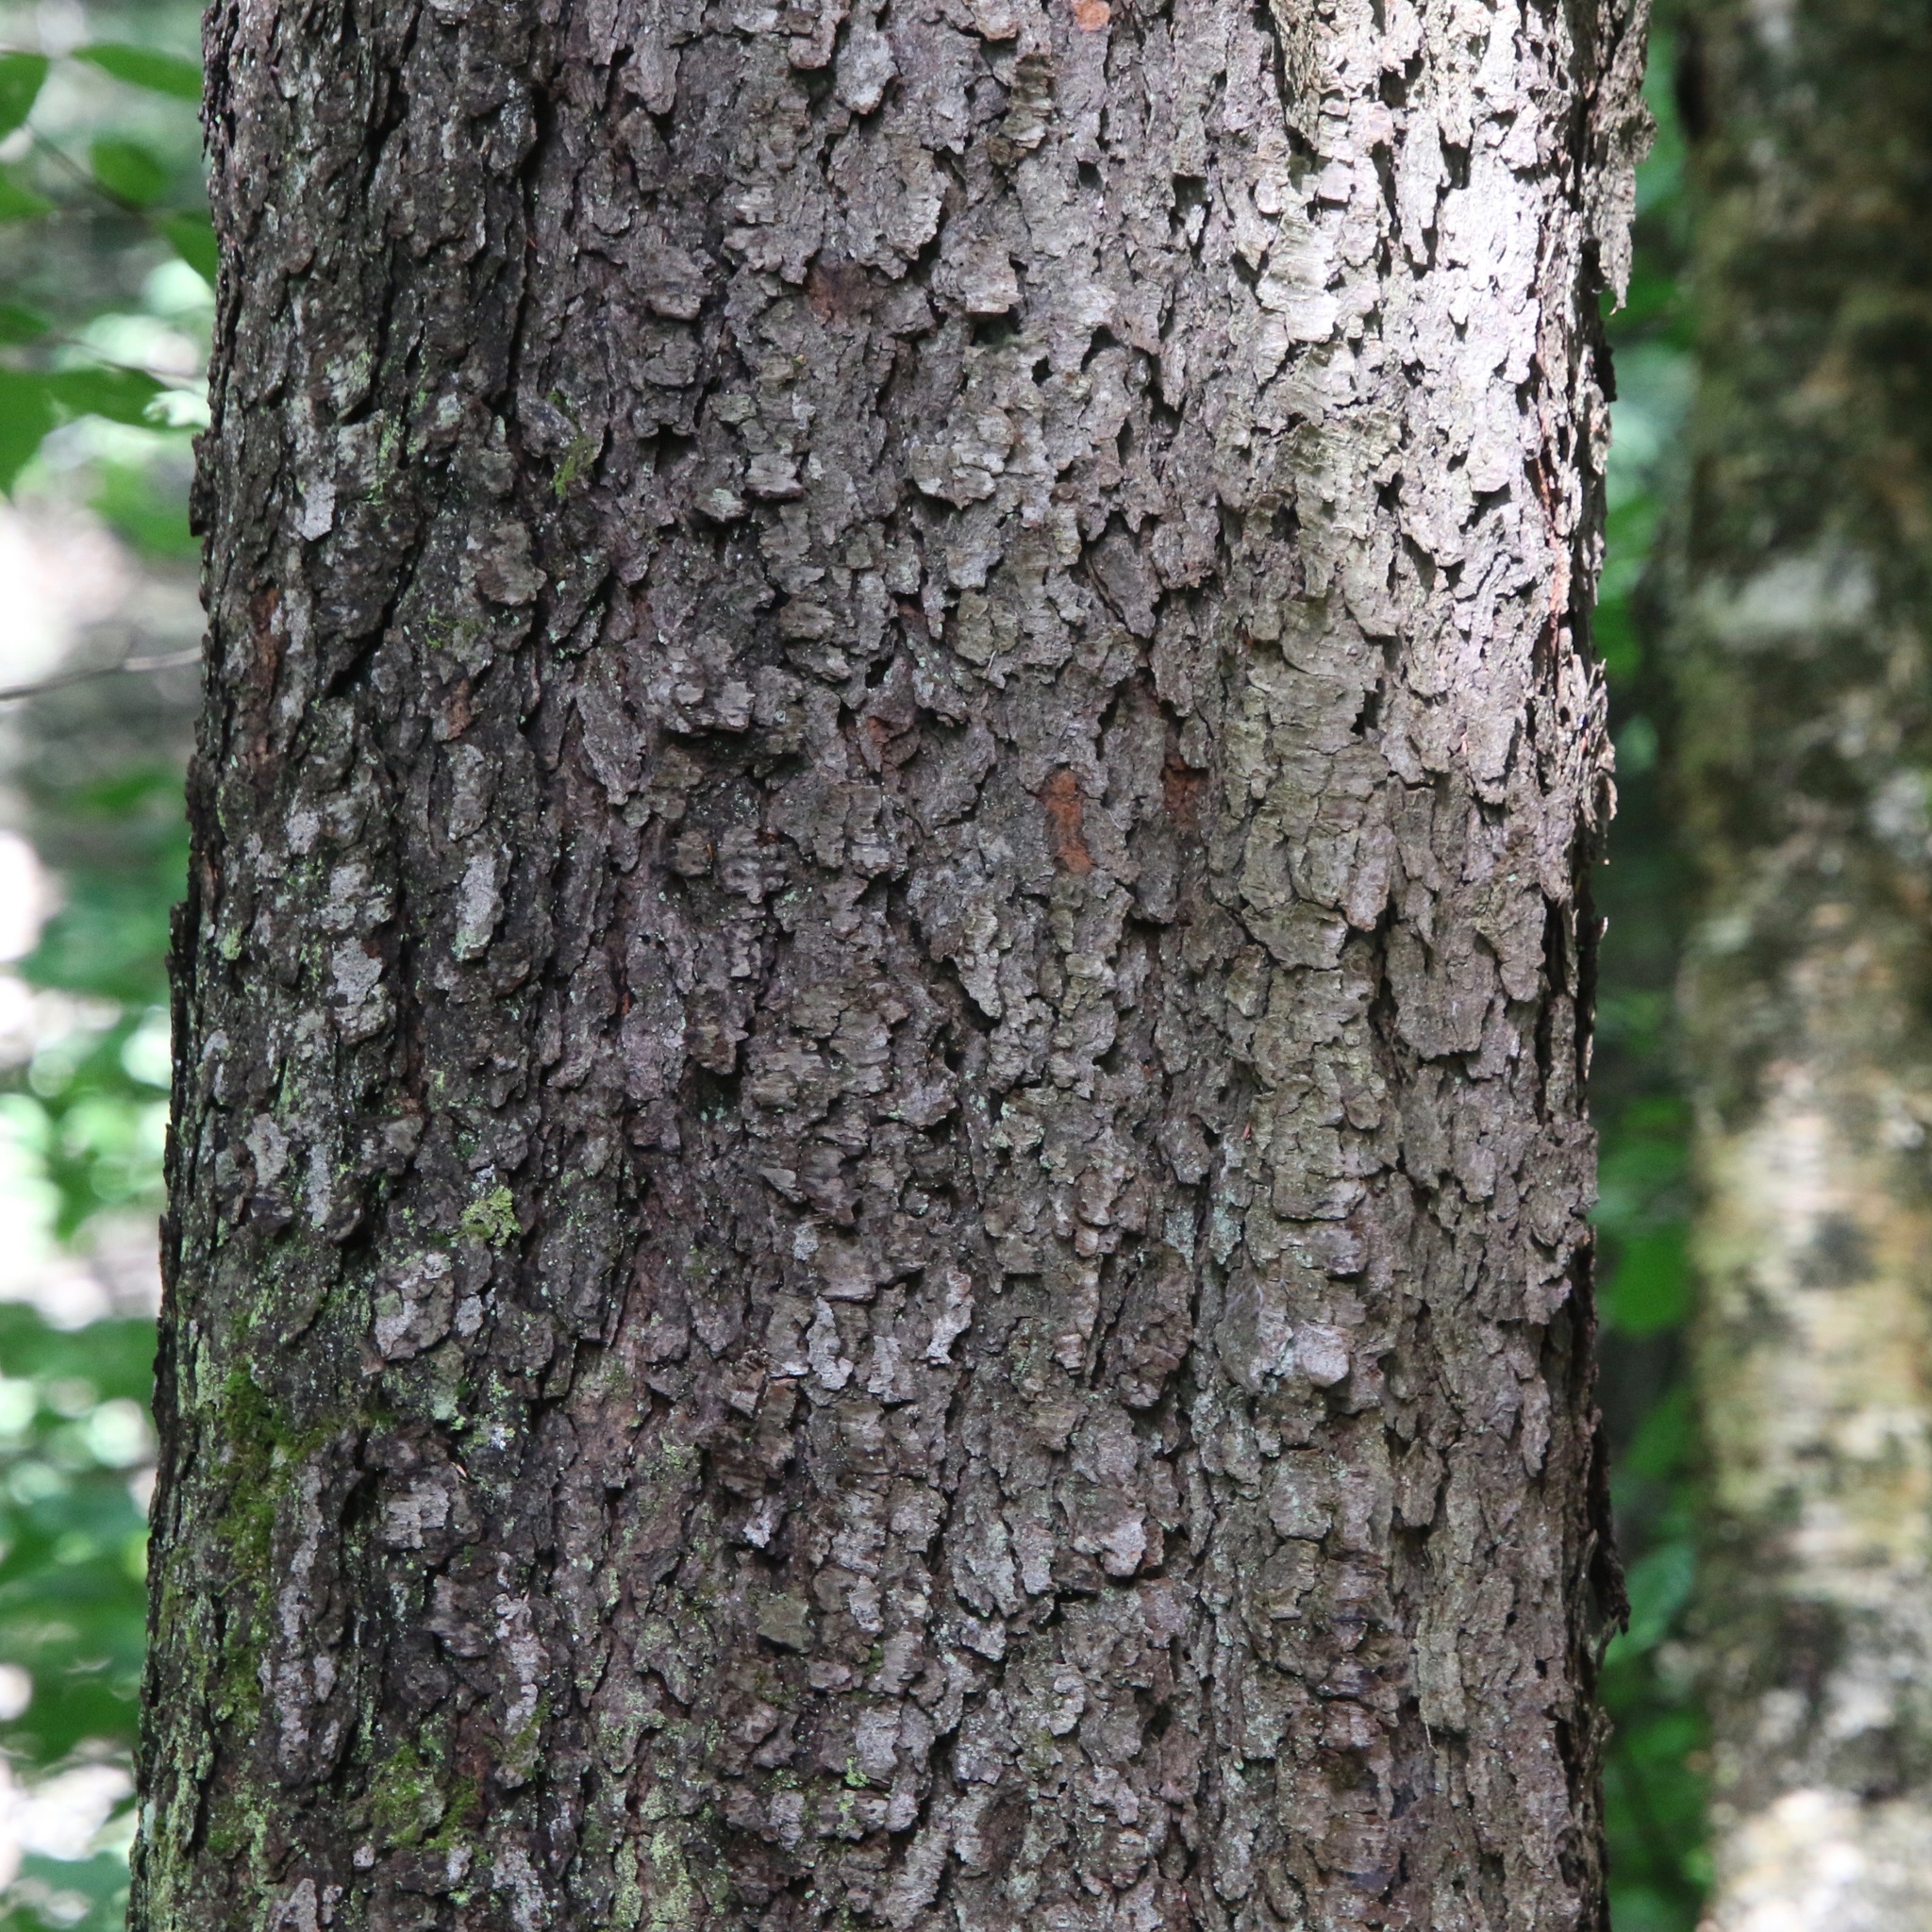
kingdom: Plantae
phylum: Tracheophyta
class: Magnoliopsida
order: Rosales
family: Rosaceae
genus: Prunus
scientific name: Prunus serotina
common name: Black cherry
